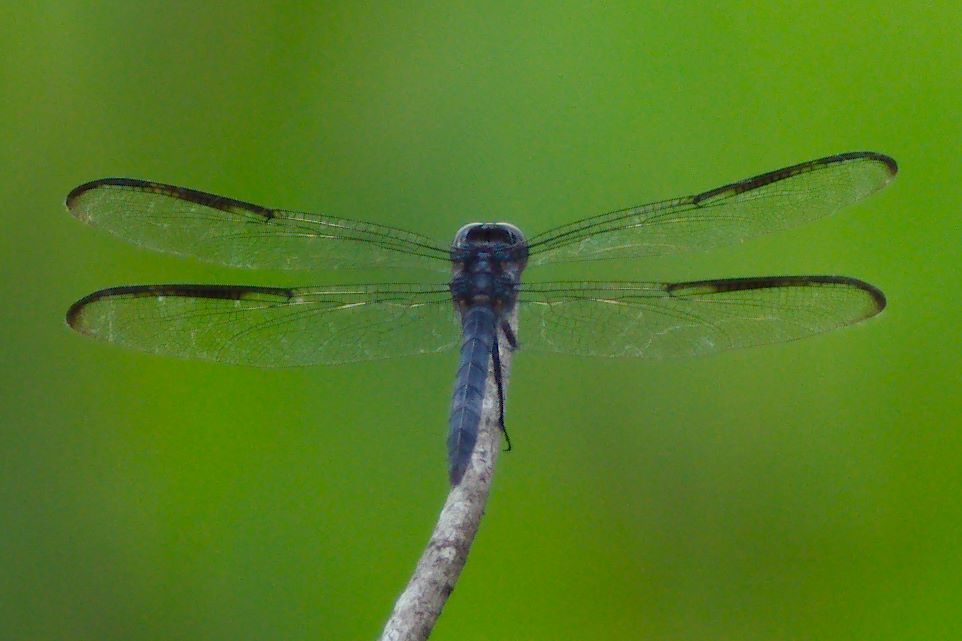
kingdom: Animalia
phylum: Arthropoda
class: Insecta
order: Odonata
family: Libellulidae
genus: Libellula
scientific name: Libellula incesta
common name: Slaty skimmer
